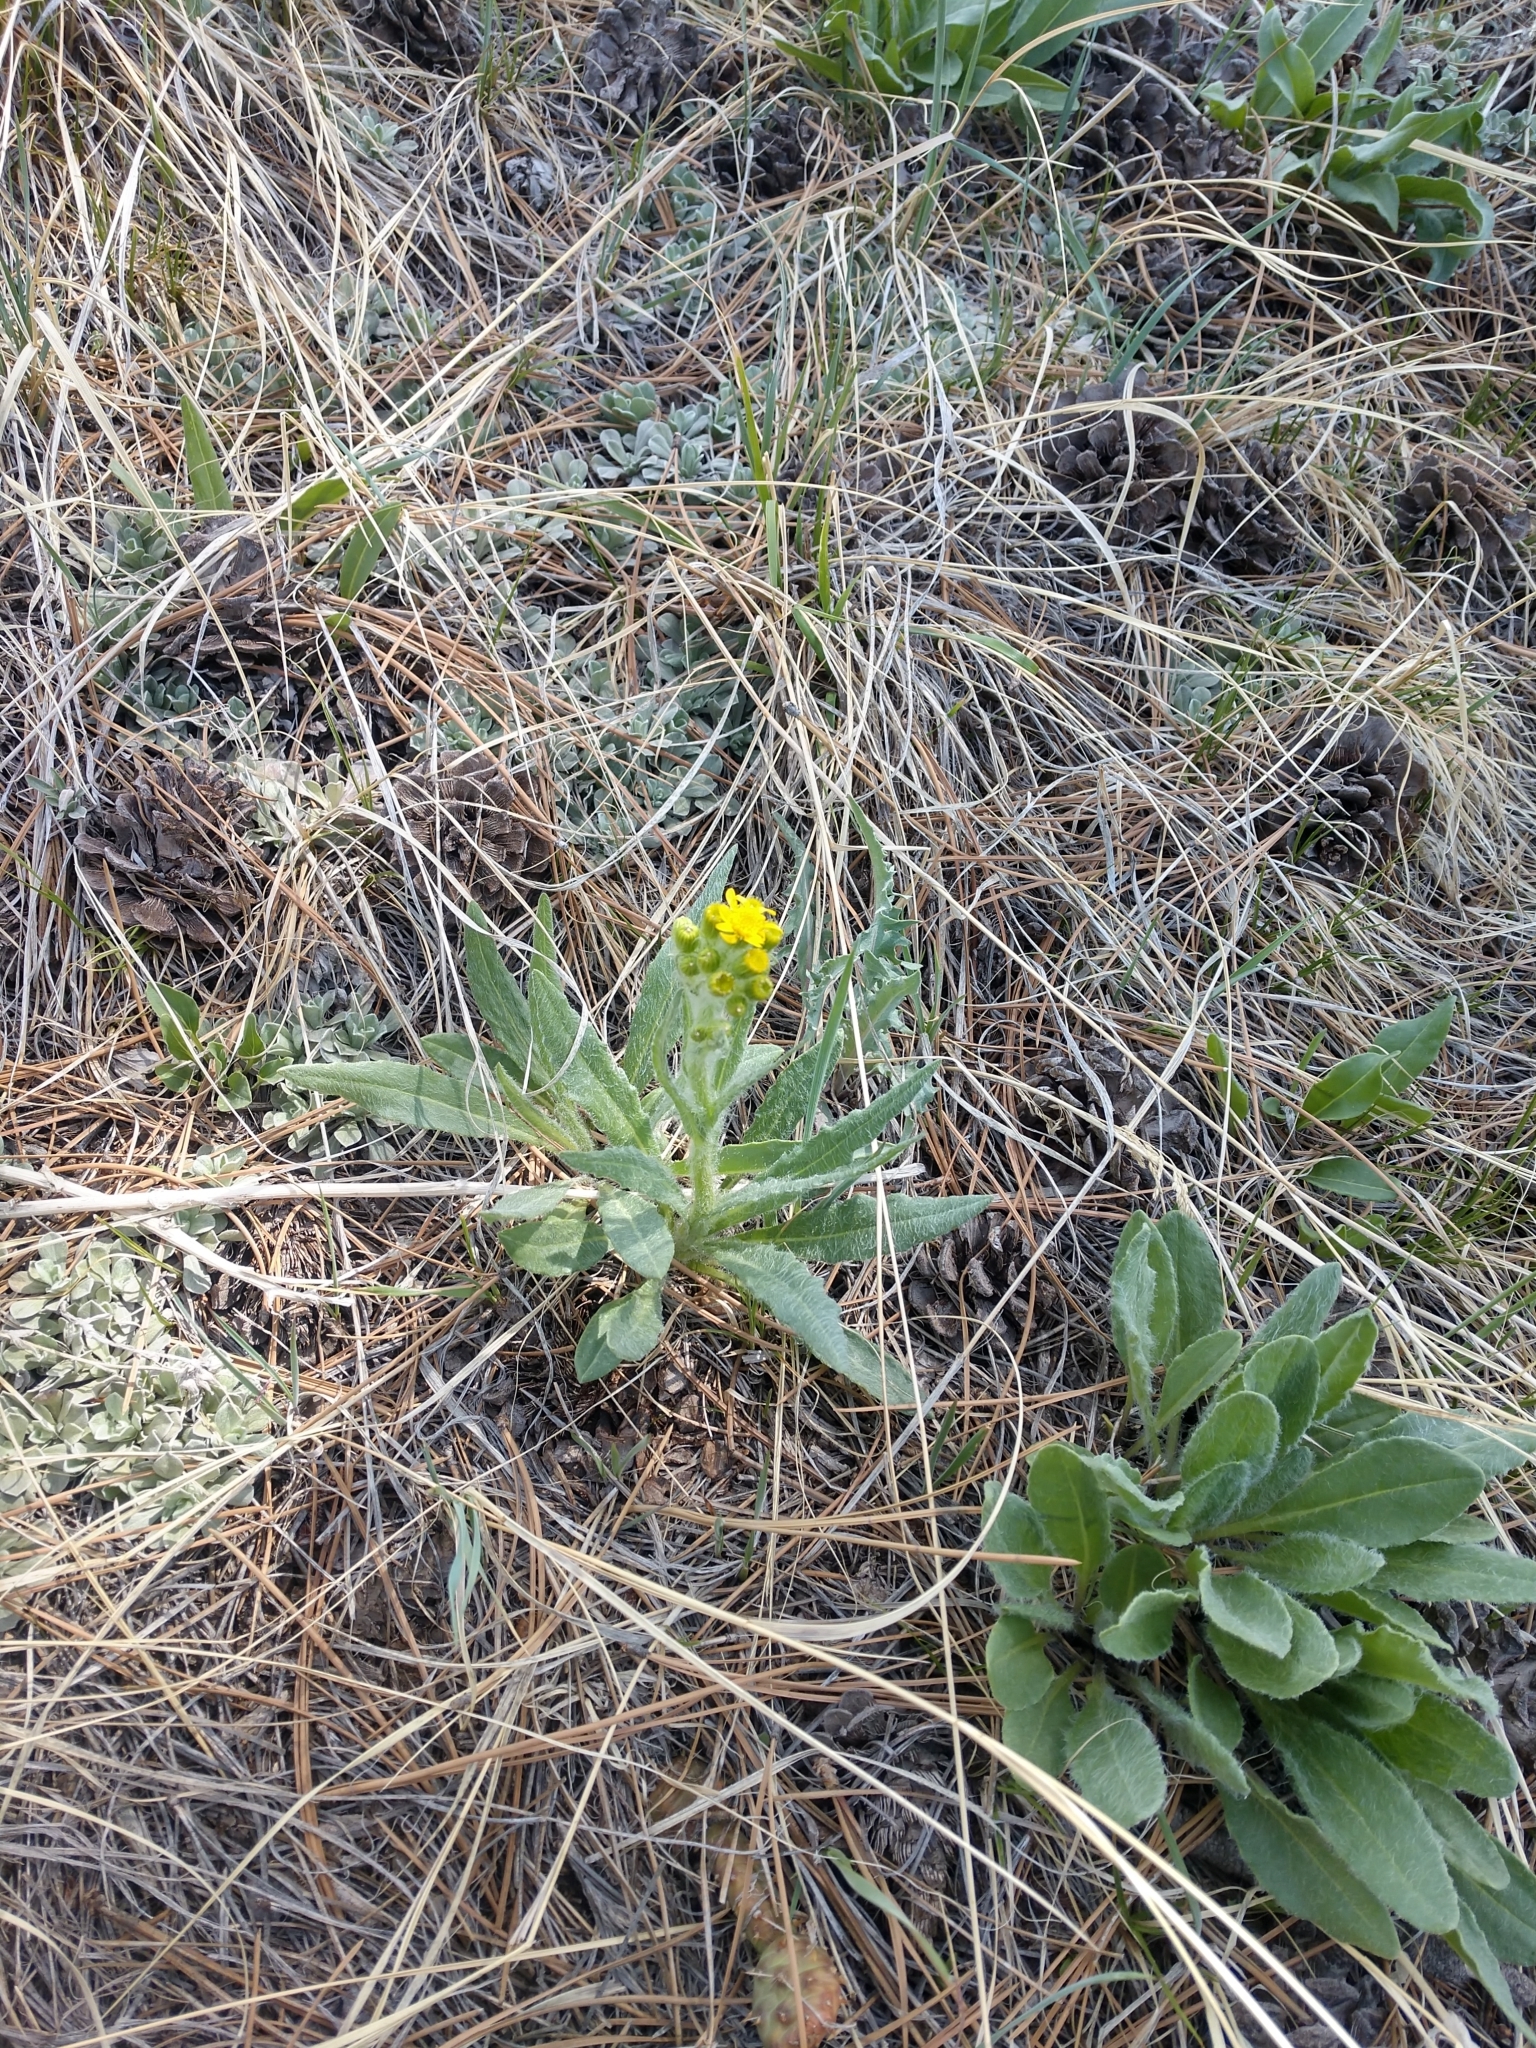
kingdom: Plantae
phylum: Tracheophyta
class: Magnoliopsida
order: Asterales
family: Asteraceae
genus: Senecio
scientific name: Senecio integerrimus
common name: Gaugeplant
